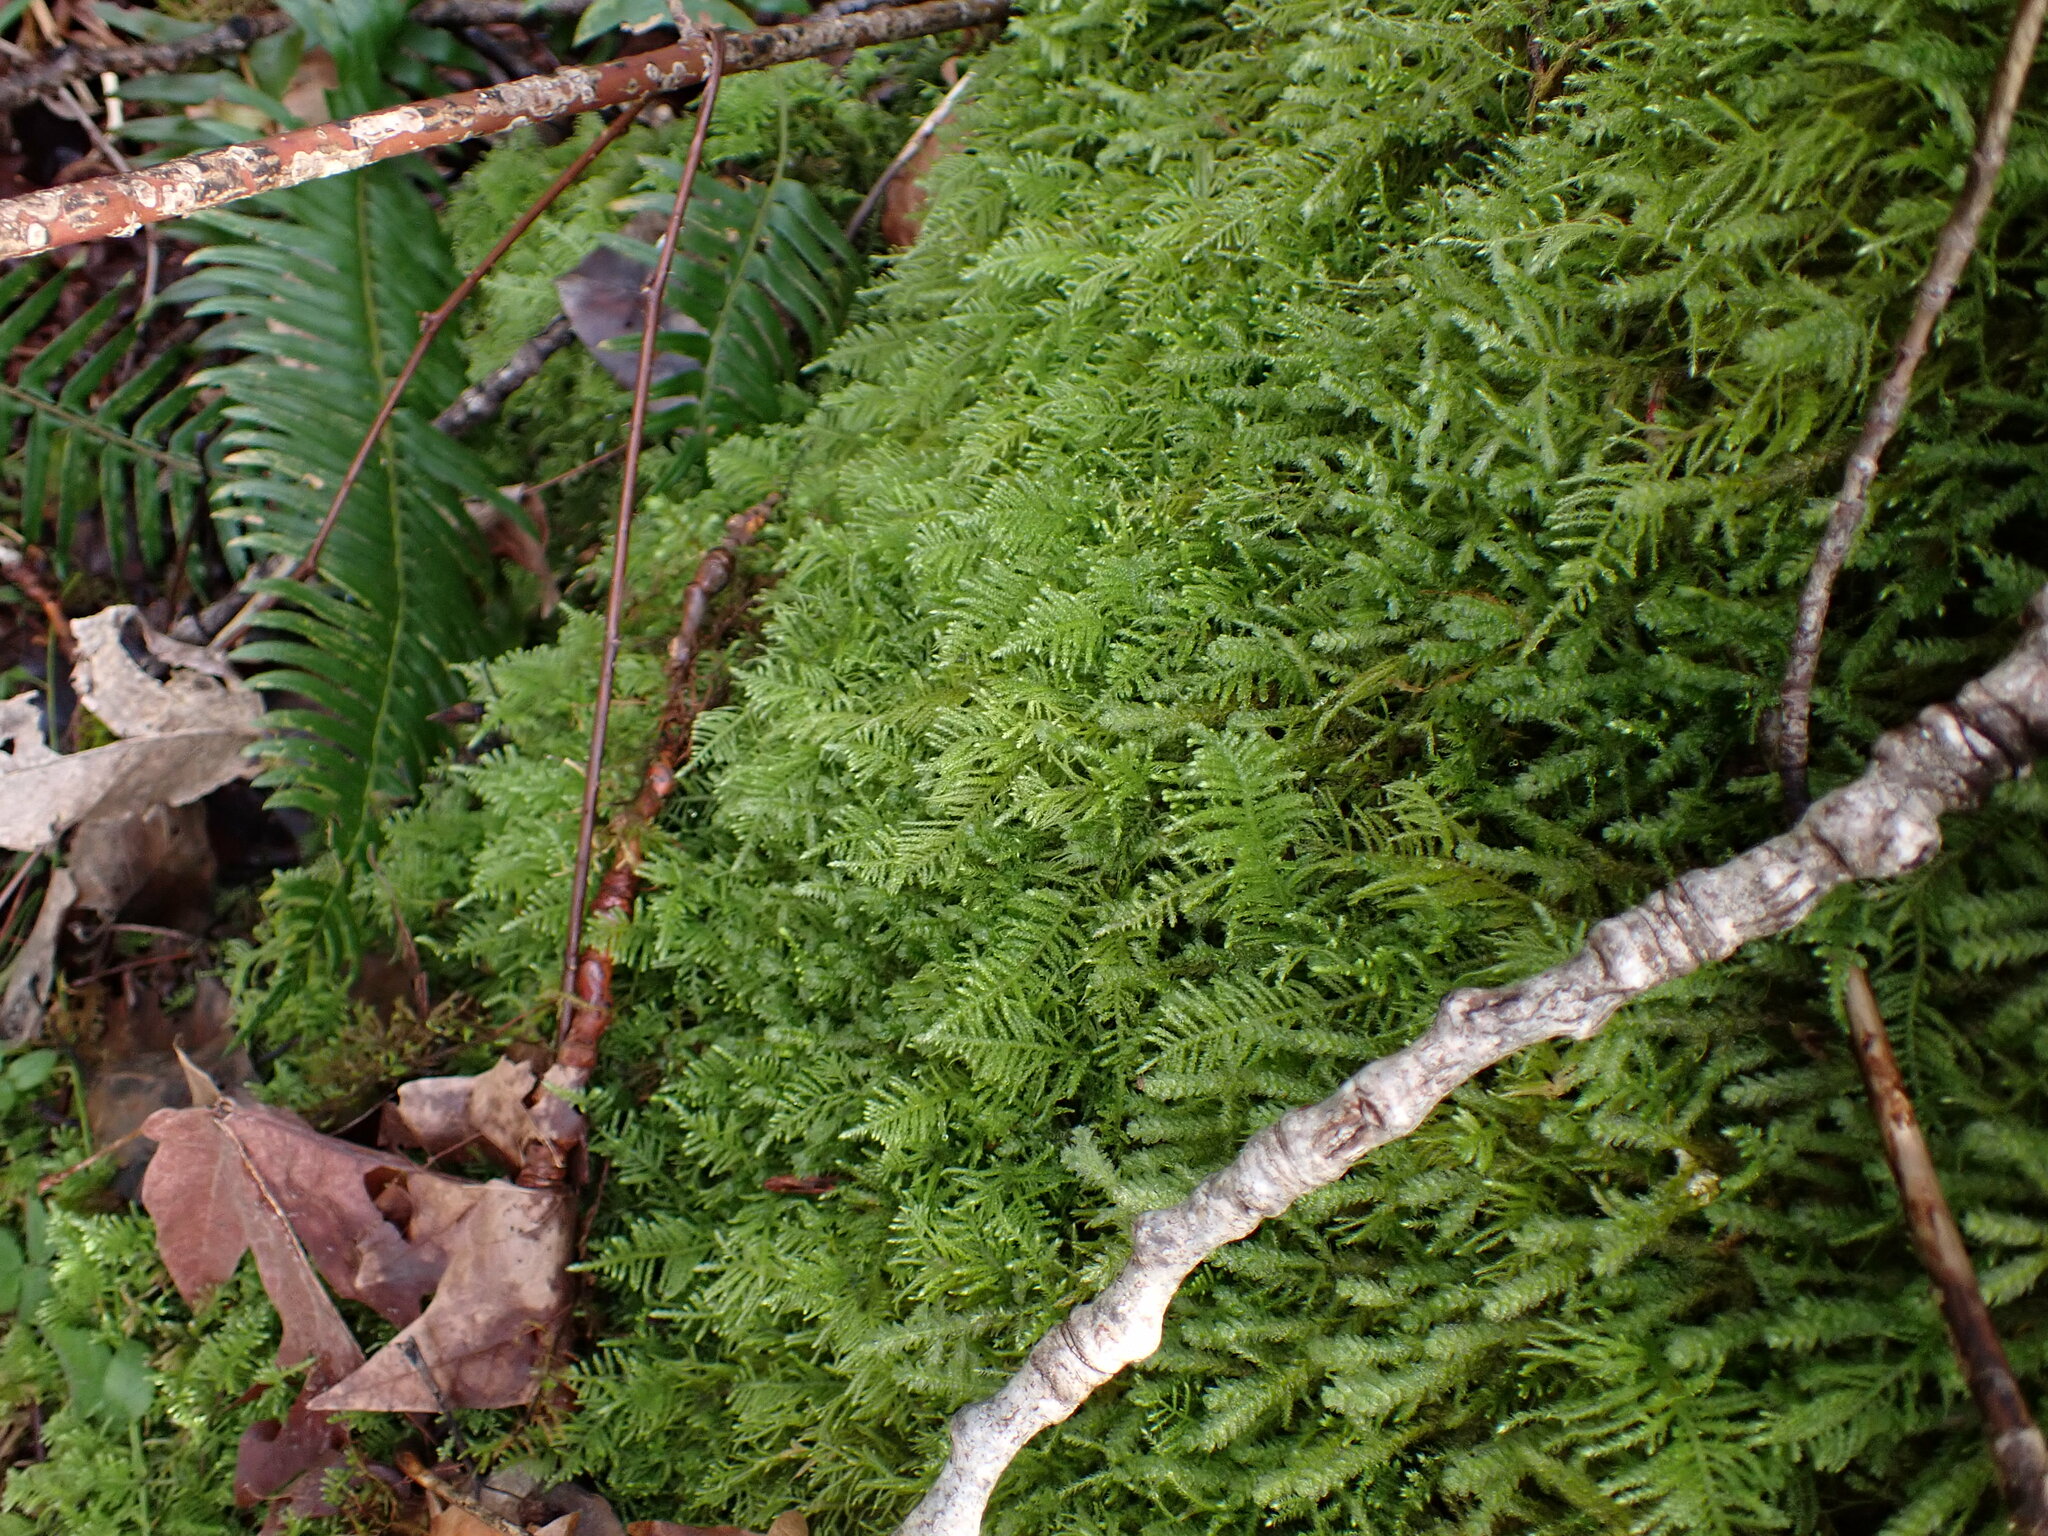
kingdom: Plantae
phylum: Bryophyta
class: Bryopsida
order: Hypnales
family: Brachytheciaceae
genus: Kindbergia
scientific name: Kindbergia oregana
